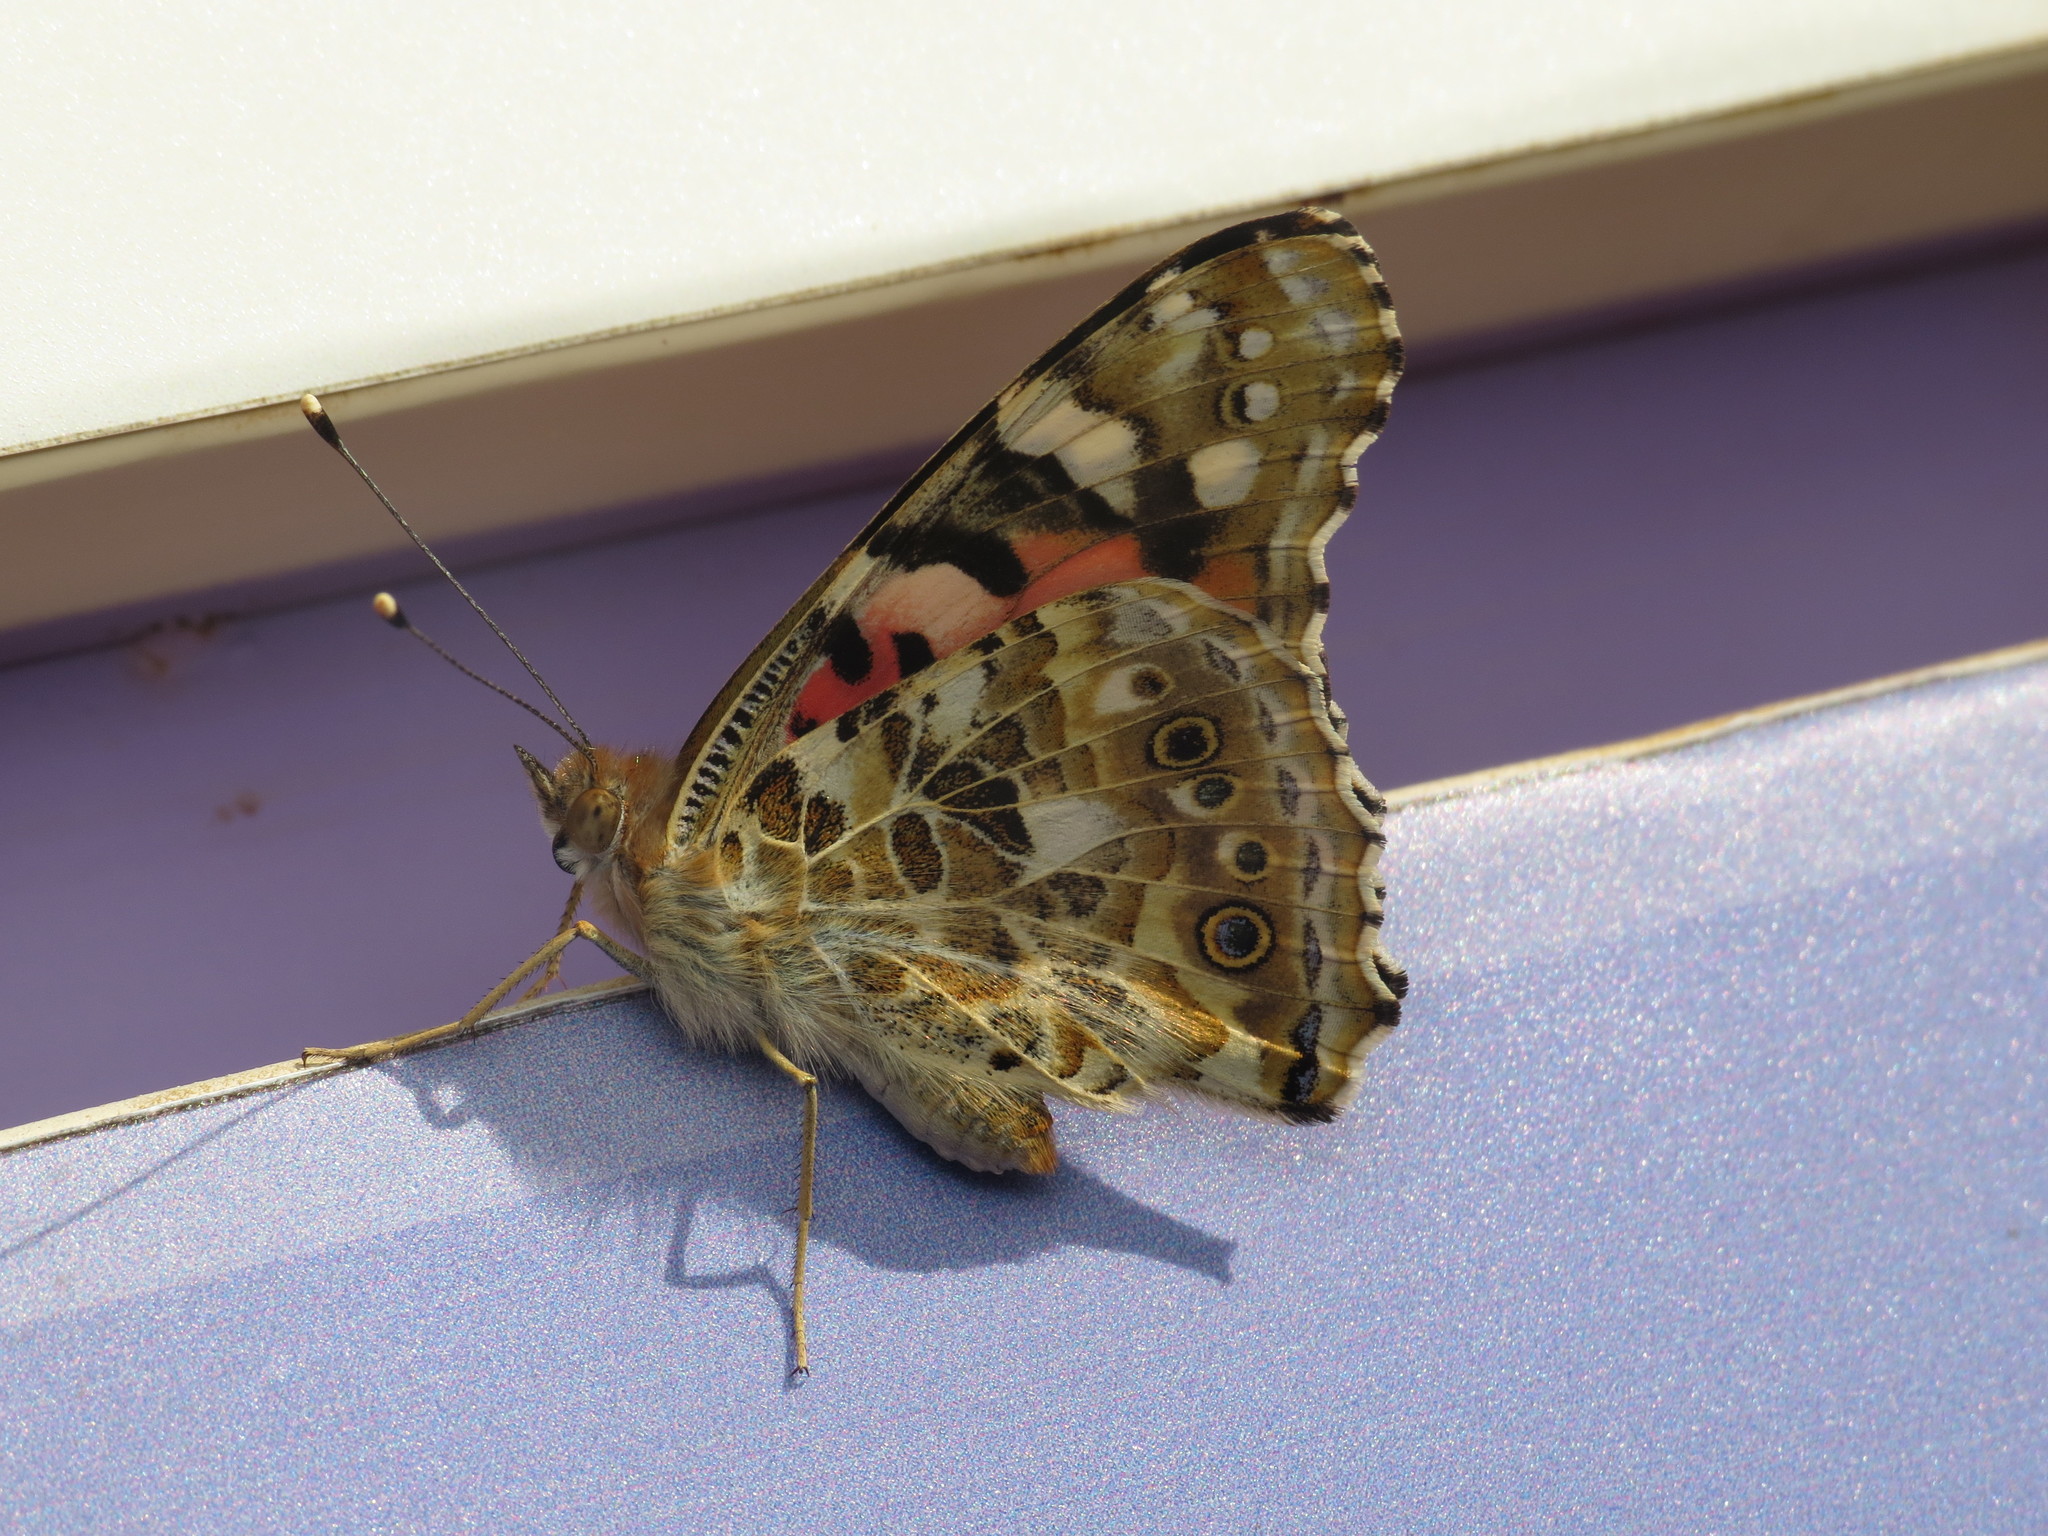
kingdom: Animalia
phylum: Arthropoda
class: Insecta
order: Lepidoptera
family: Nymphalidae
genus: Vanessa
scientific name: Vanessa cardui
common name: Painted lady
